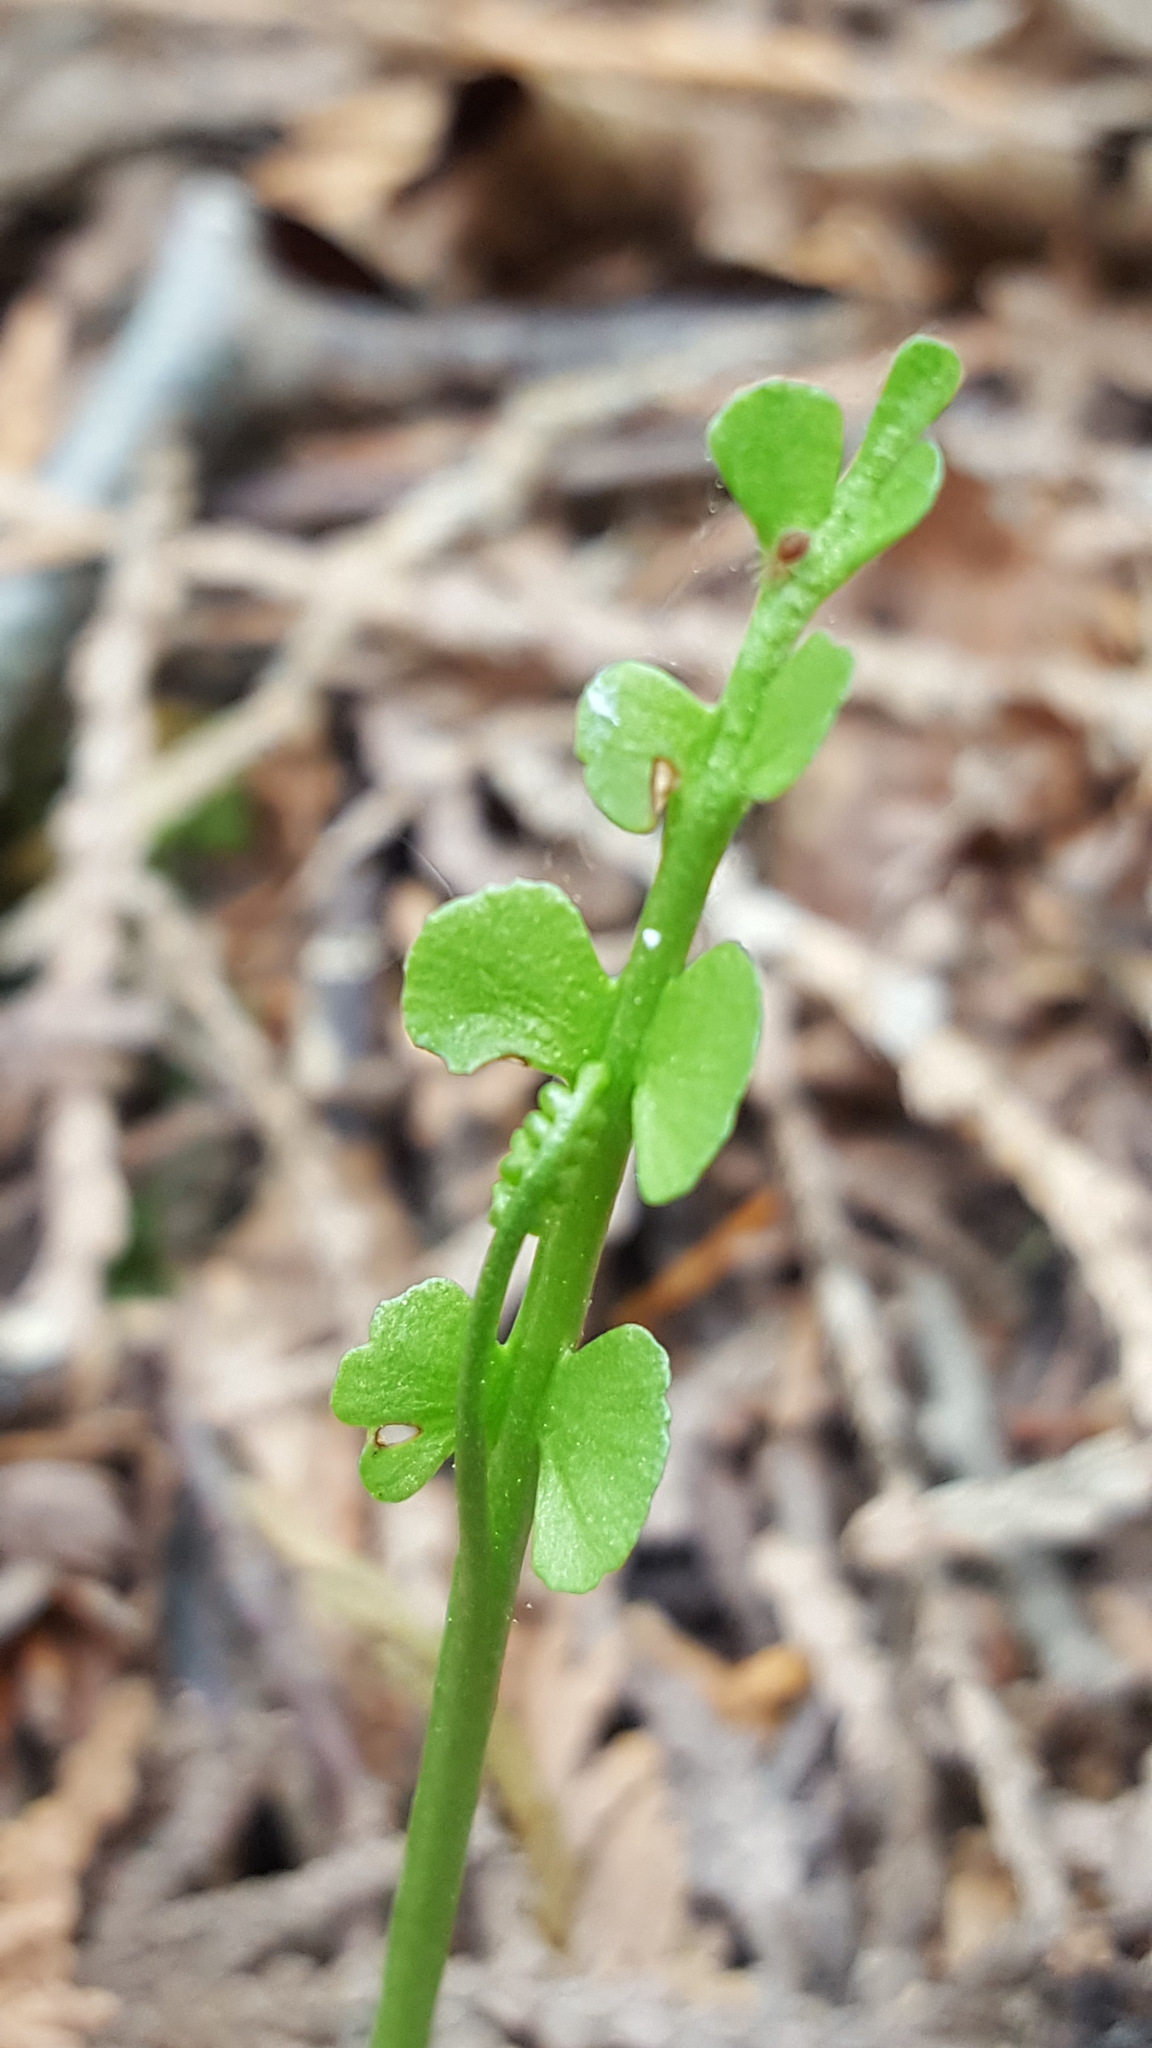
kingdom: Plantae
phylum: Tracheophyta
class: Polypodiopsida
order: Ophioglossales
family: Ophioglossaceae
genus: Botrychium
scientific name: Botrychium lunaria
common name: Moonwort
